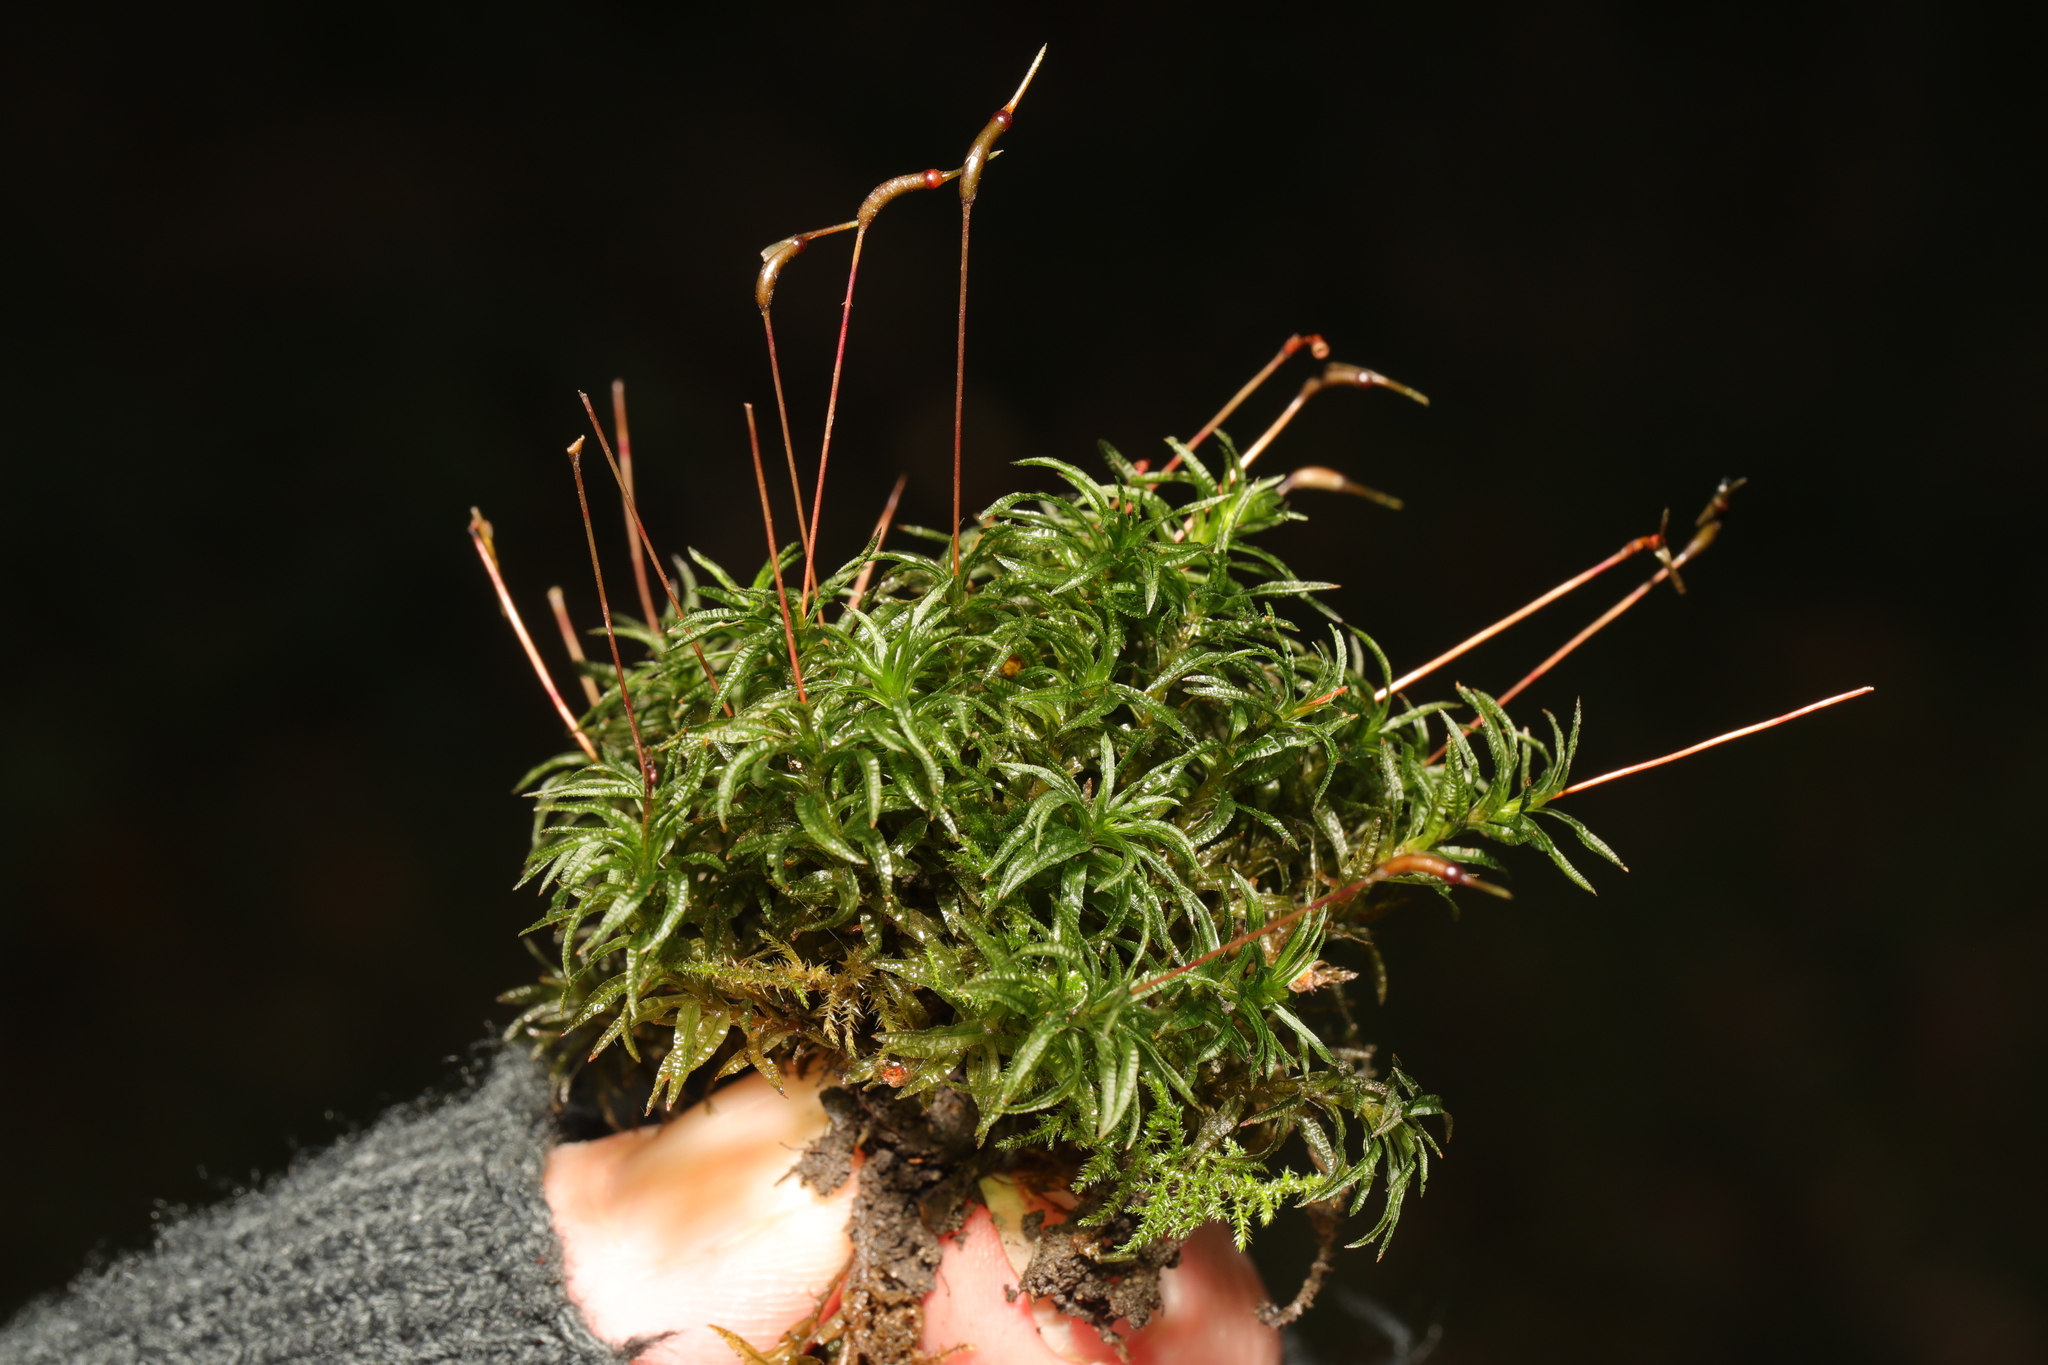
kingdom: Plantae
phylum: Bryophyta
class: Polytrichopsida
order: Polytrichales
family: Polytrichaceae
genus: Atrichum
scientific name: Atrichum undulatum
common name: Common smoothcap
